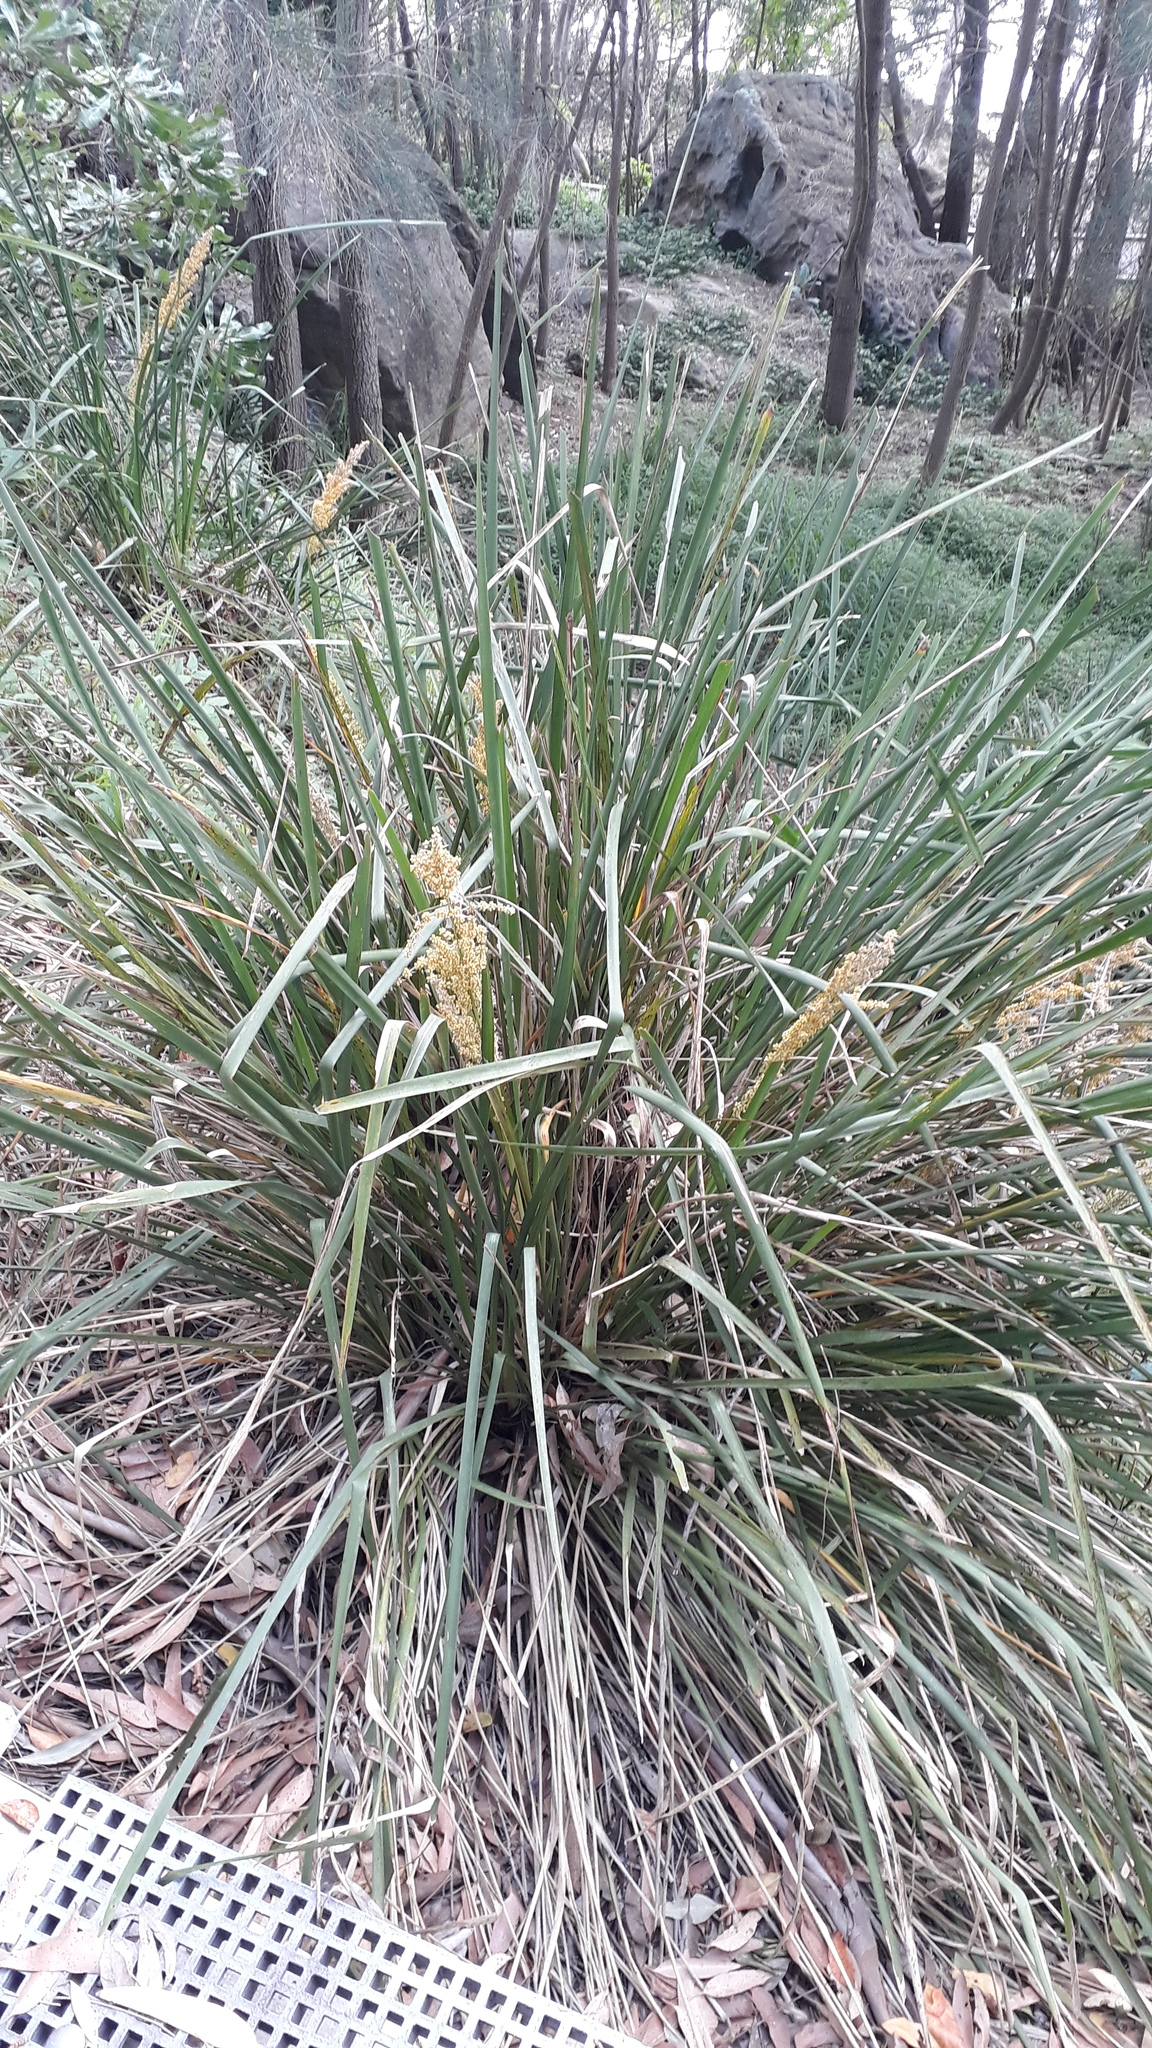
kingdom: Plantae
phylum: Tracheophyta
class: Liliopsida
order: Asparagales
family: Asparagaceae
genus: Lomandra
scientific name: Lomandra longifolia
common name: Longleaf mat-rush
